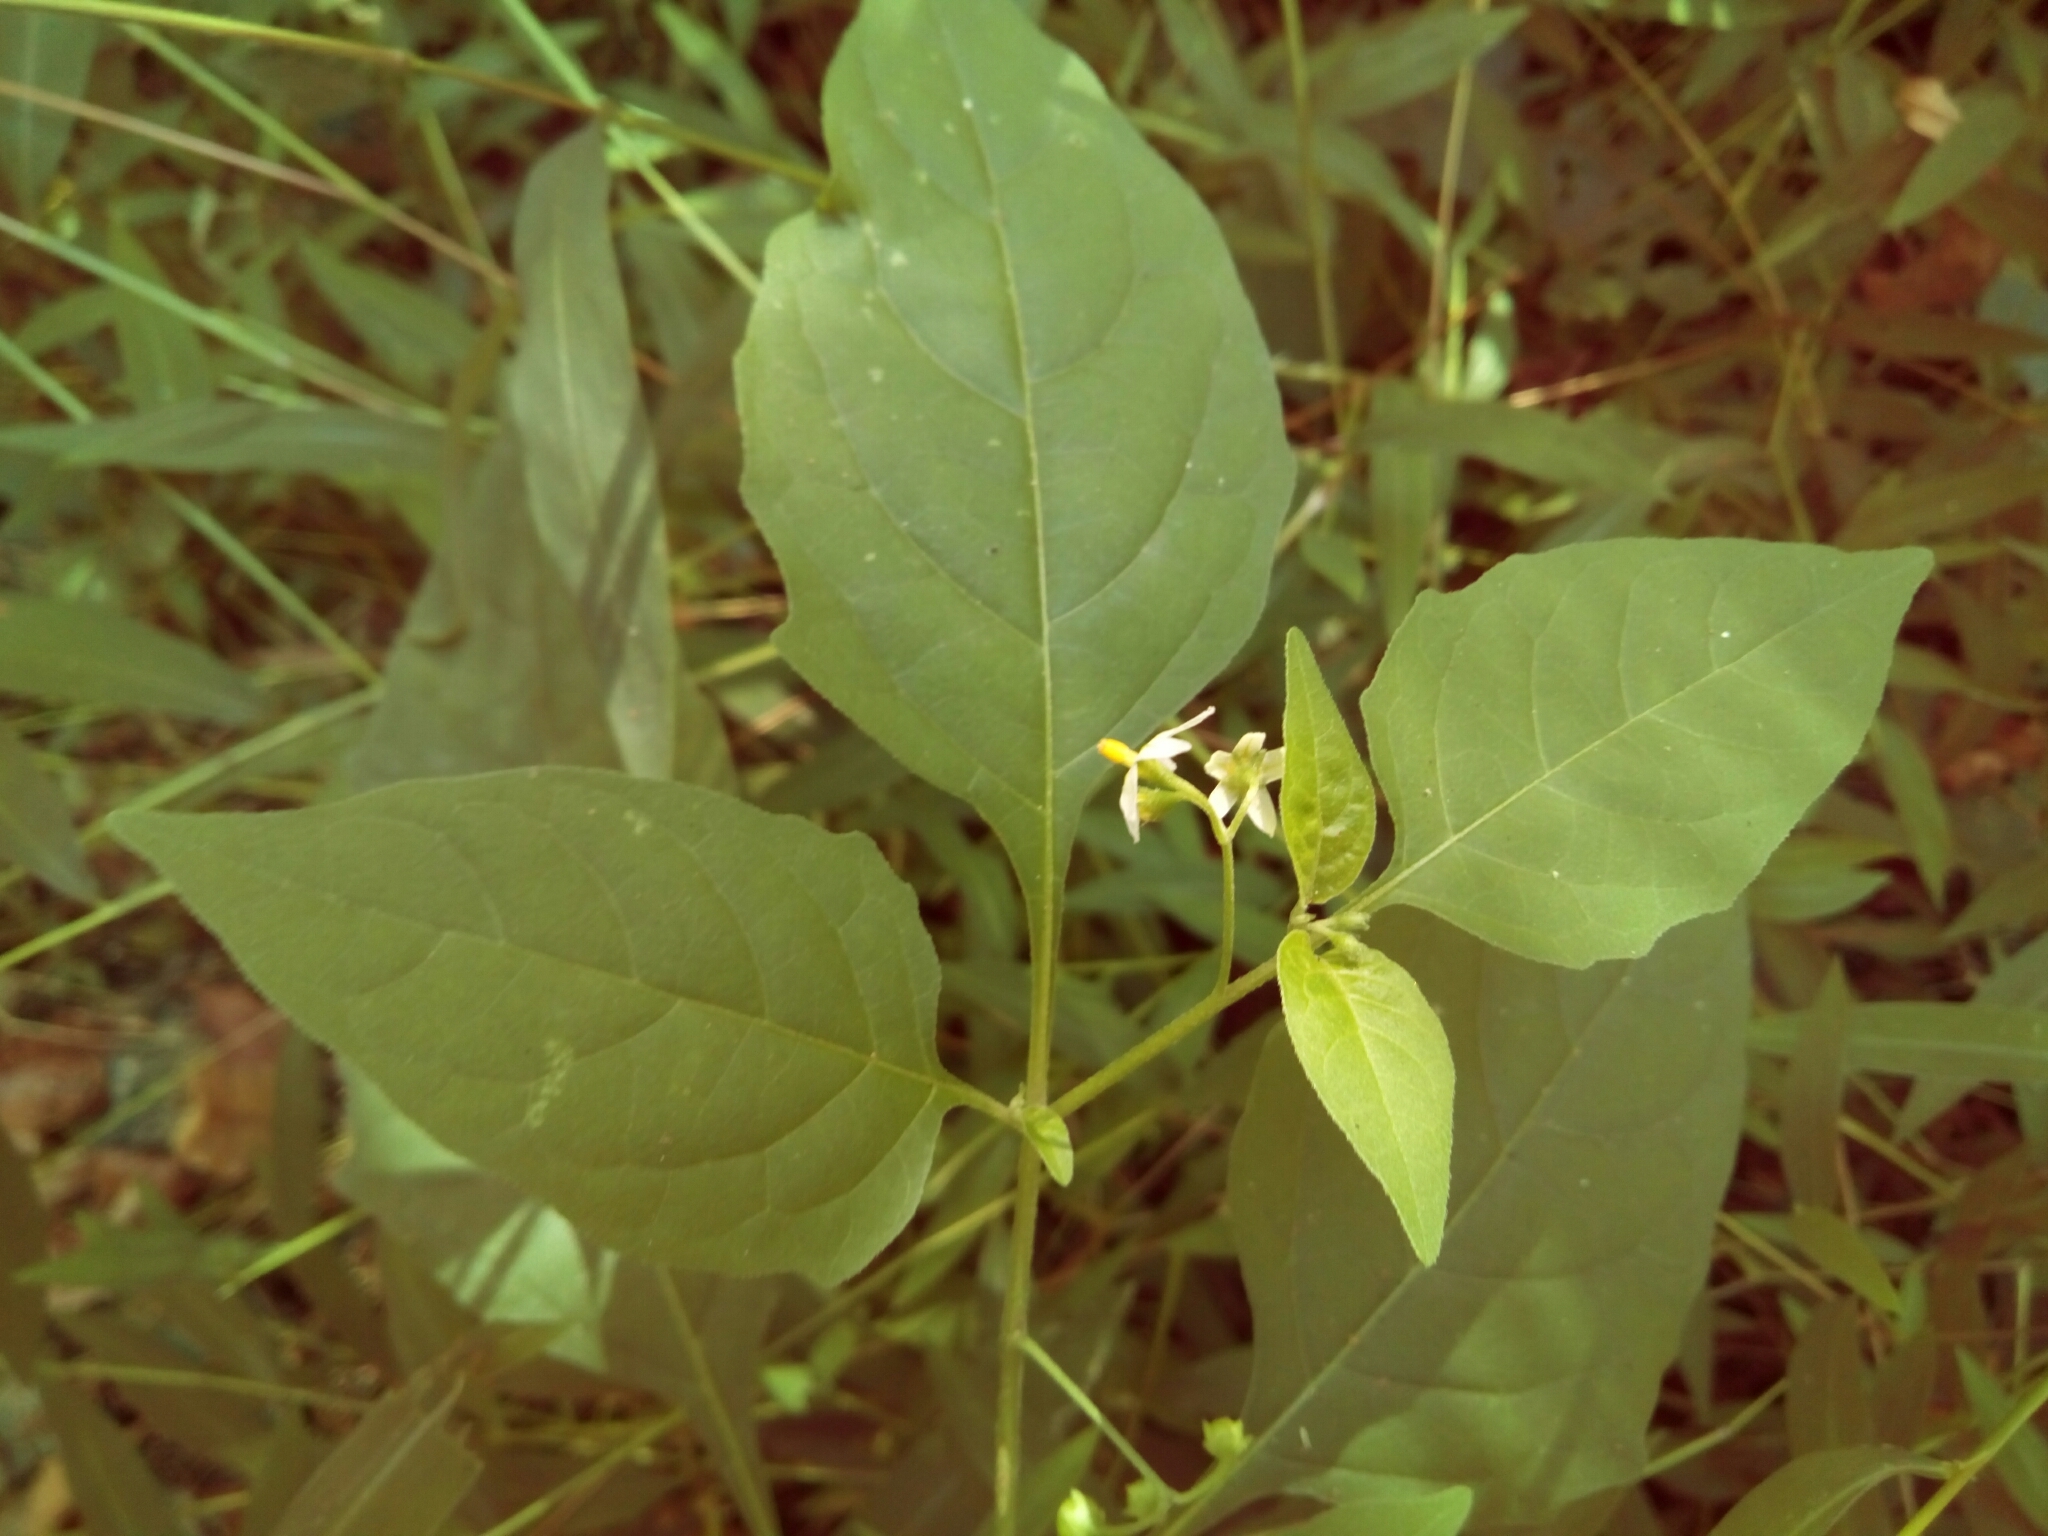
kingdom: Plantae
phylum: Tracheophyta
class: Magnoliopsida
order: Solanales
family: Solanaceae
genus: Solanum
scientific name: Solanum emulans
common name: Eastern black nightshade
